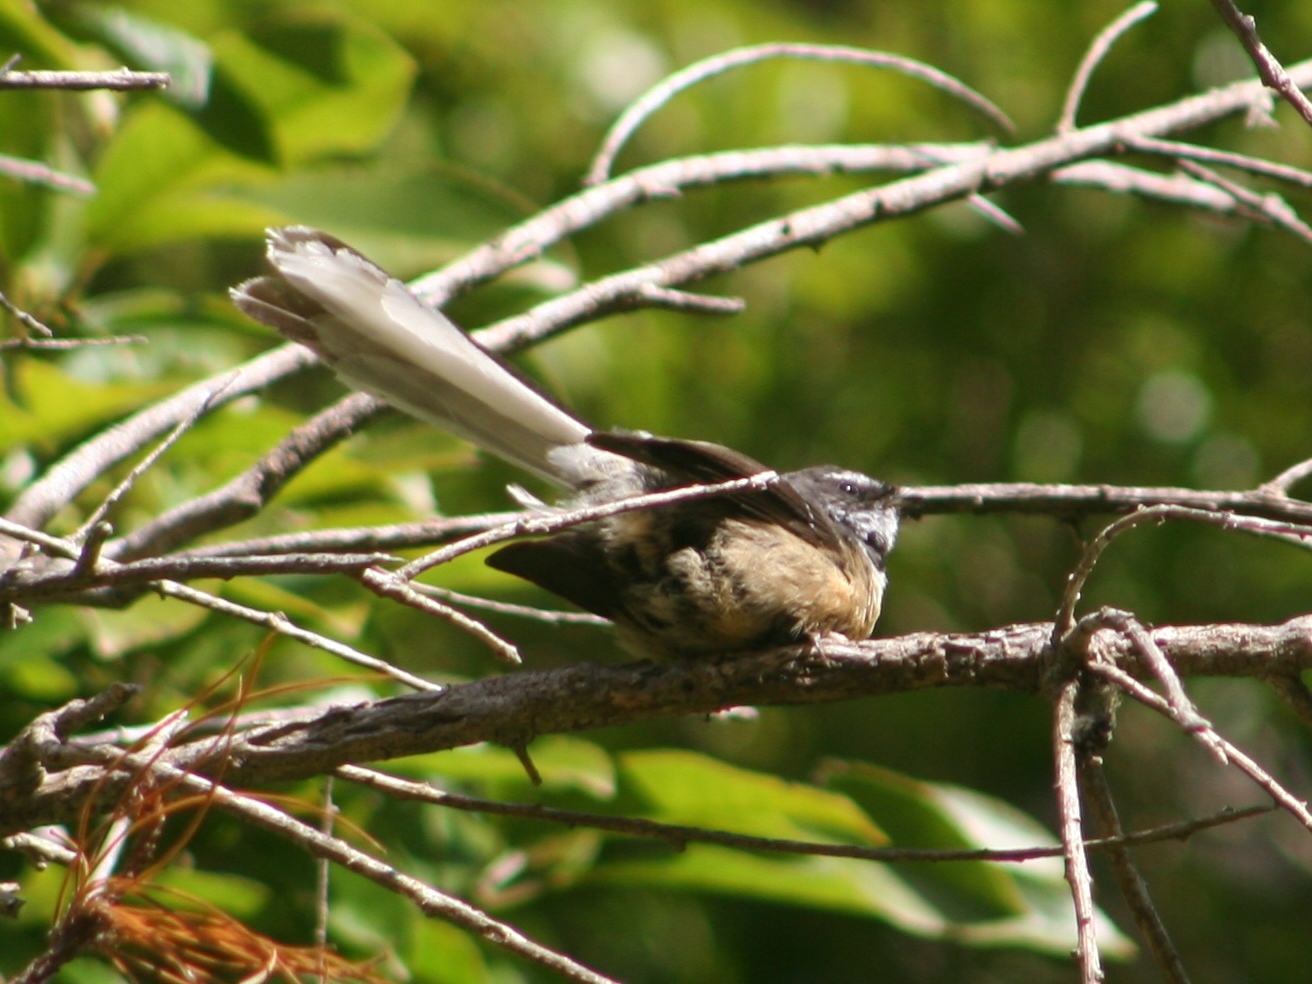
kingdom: Animalia
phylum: Chordata
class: Aves
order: Passeriformes
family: Rhipiduridae
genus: Rhipidura
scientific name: Rhipidura fuliginosa
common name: New zealand fantail
